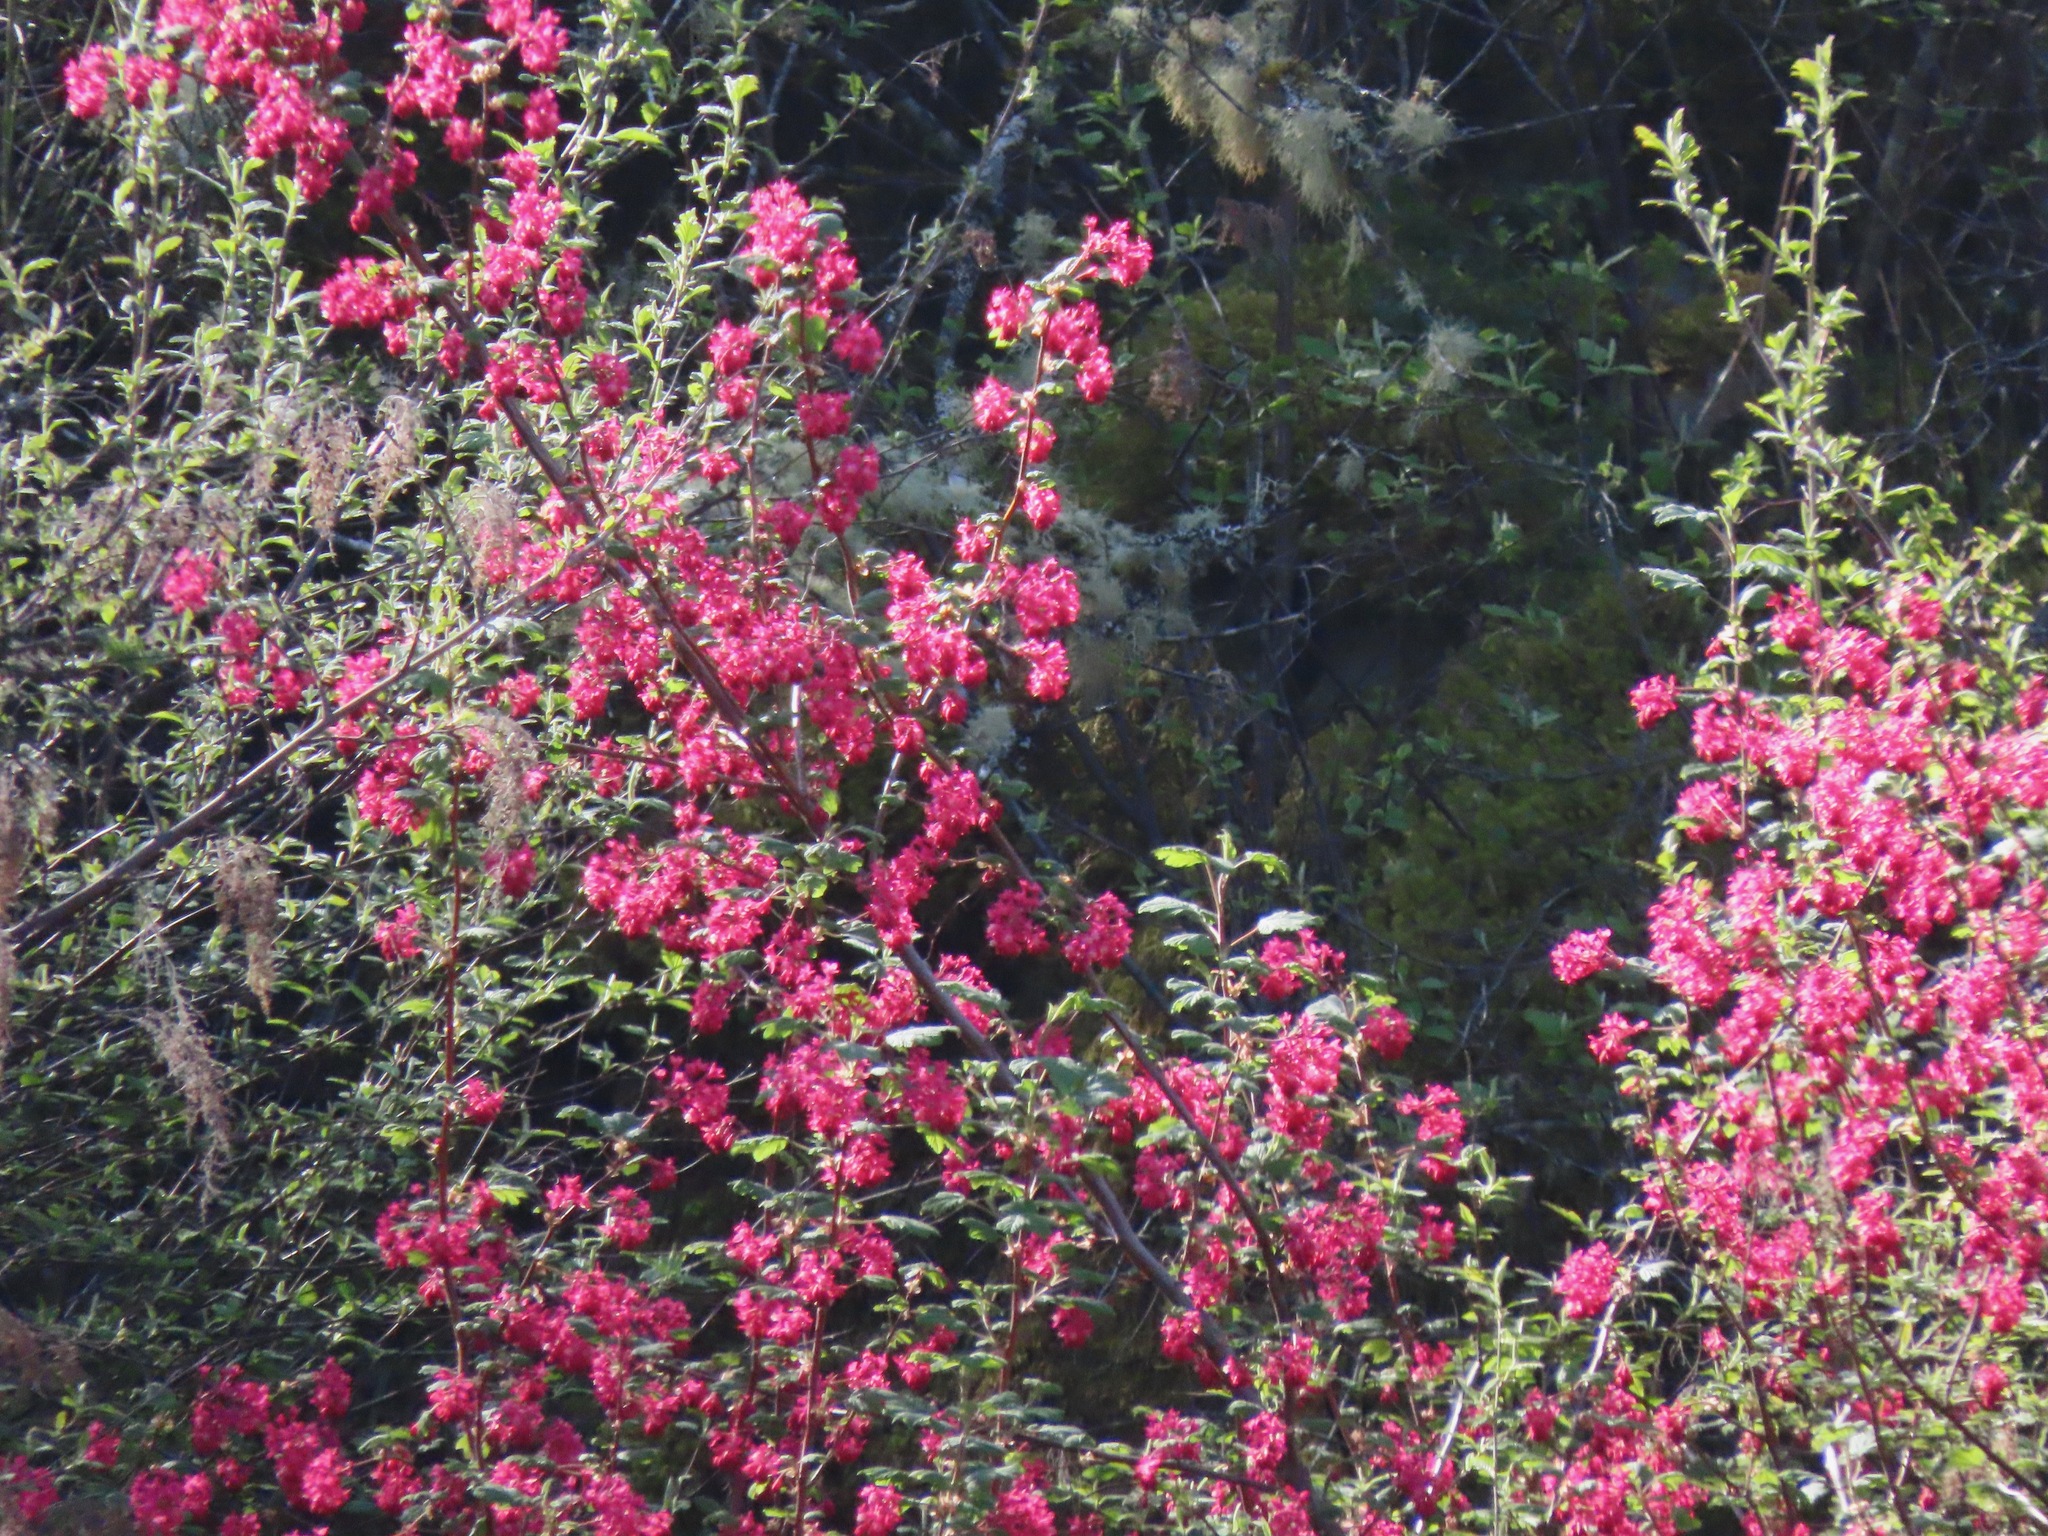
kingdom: Plantae
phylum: Tracheophyta
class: Magnoliopsida
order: Saxifragales
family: Grossulariaceae
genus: Ribes
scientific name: Ribes sanguineum
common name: Flowering currant
